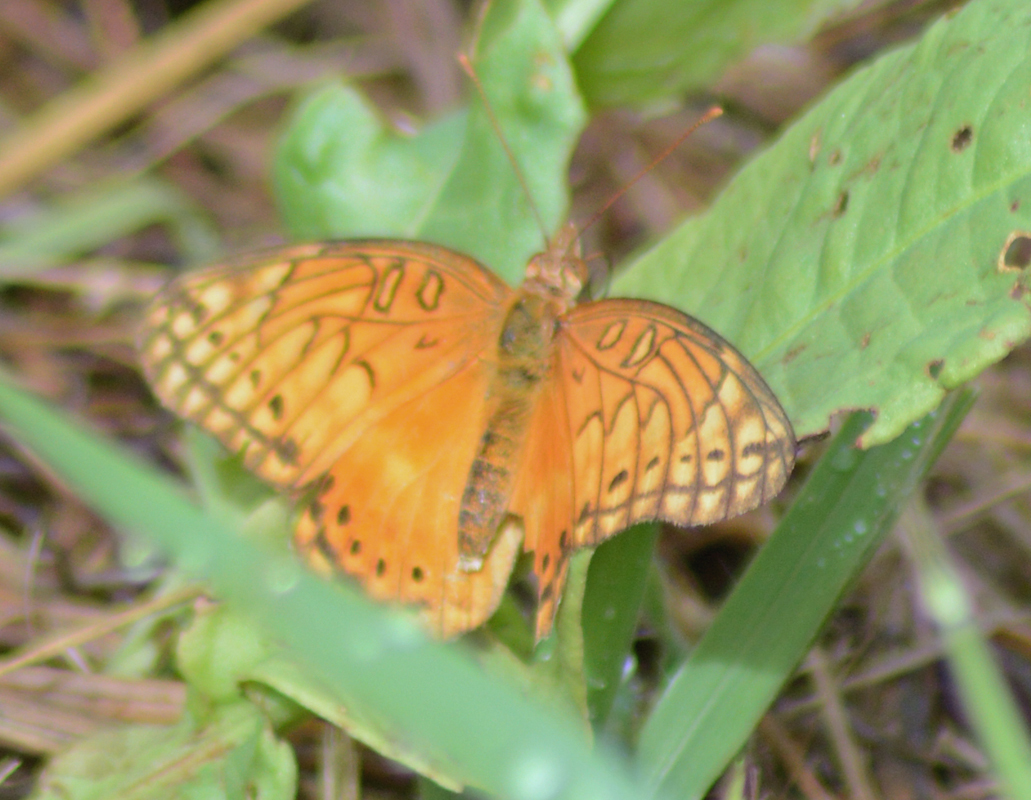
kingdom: Animalia
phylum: Arthropoda
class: Insecta
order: Lepidoptera
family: Nymphalidae
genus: Euptoieta
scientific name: Euptoieta hegesia
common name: Mexican fritillary
